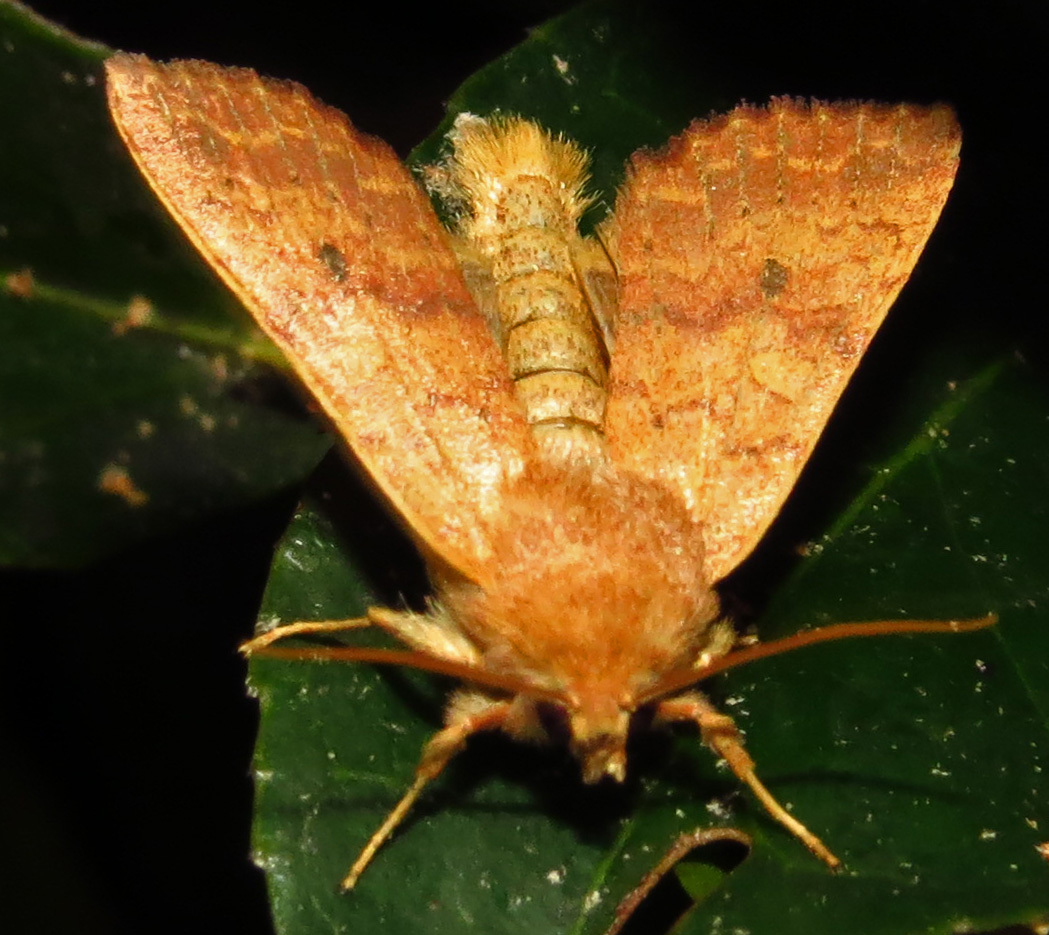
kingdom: Animalia
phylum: Arthropoda
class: Insecta
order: Lepidoptera
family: Noctuidae
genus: Agrochola
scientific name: Agrochola bicolorago
